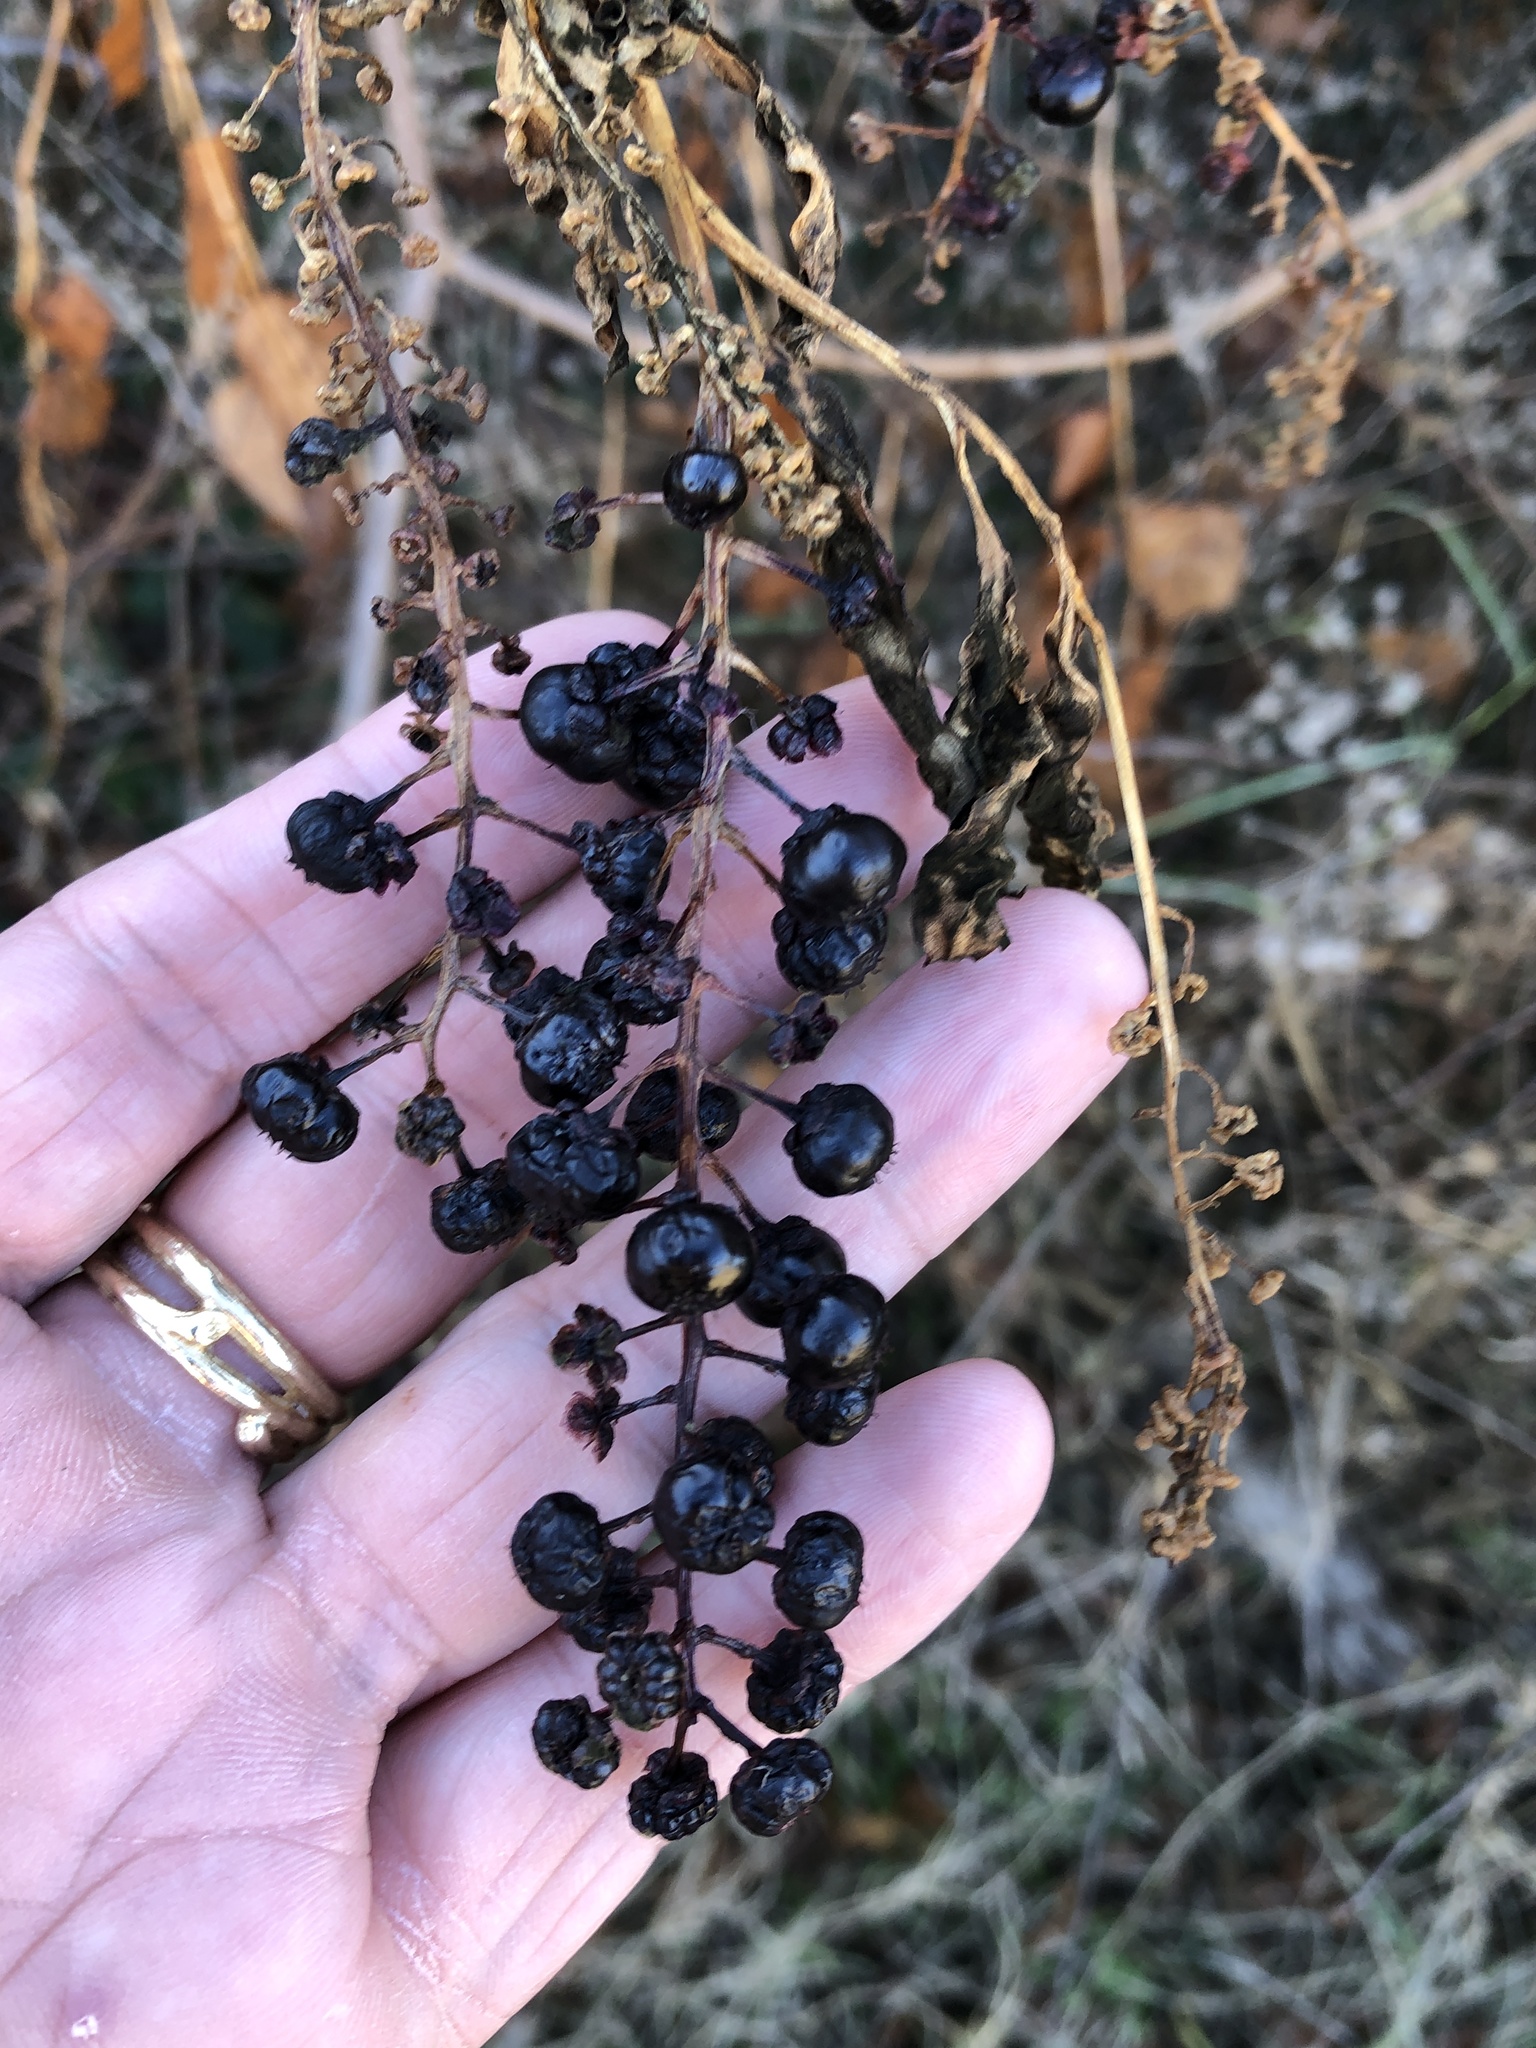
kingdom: Plantae
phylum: Tracheophyta
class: Magnoliopsida
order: Caryophyllales
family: Phytolaccaceae
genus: Phytolacca
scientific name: Phytolacca americana
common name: American pokeweed
